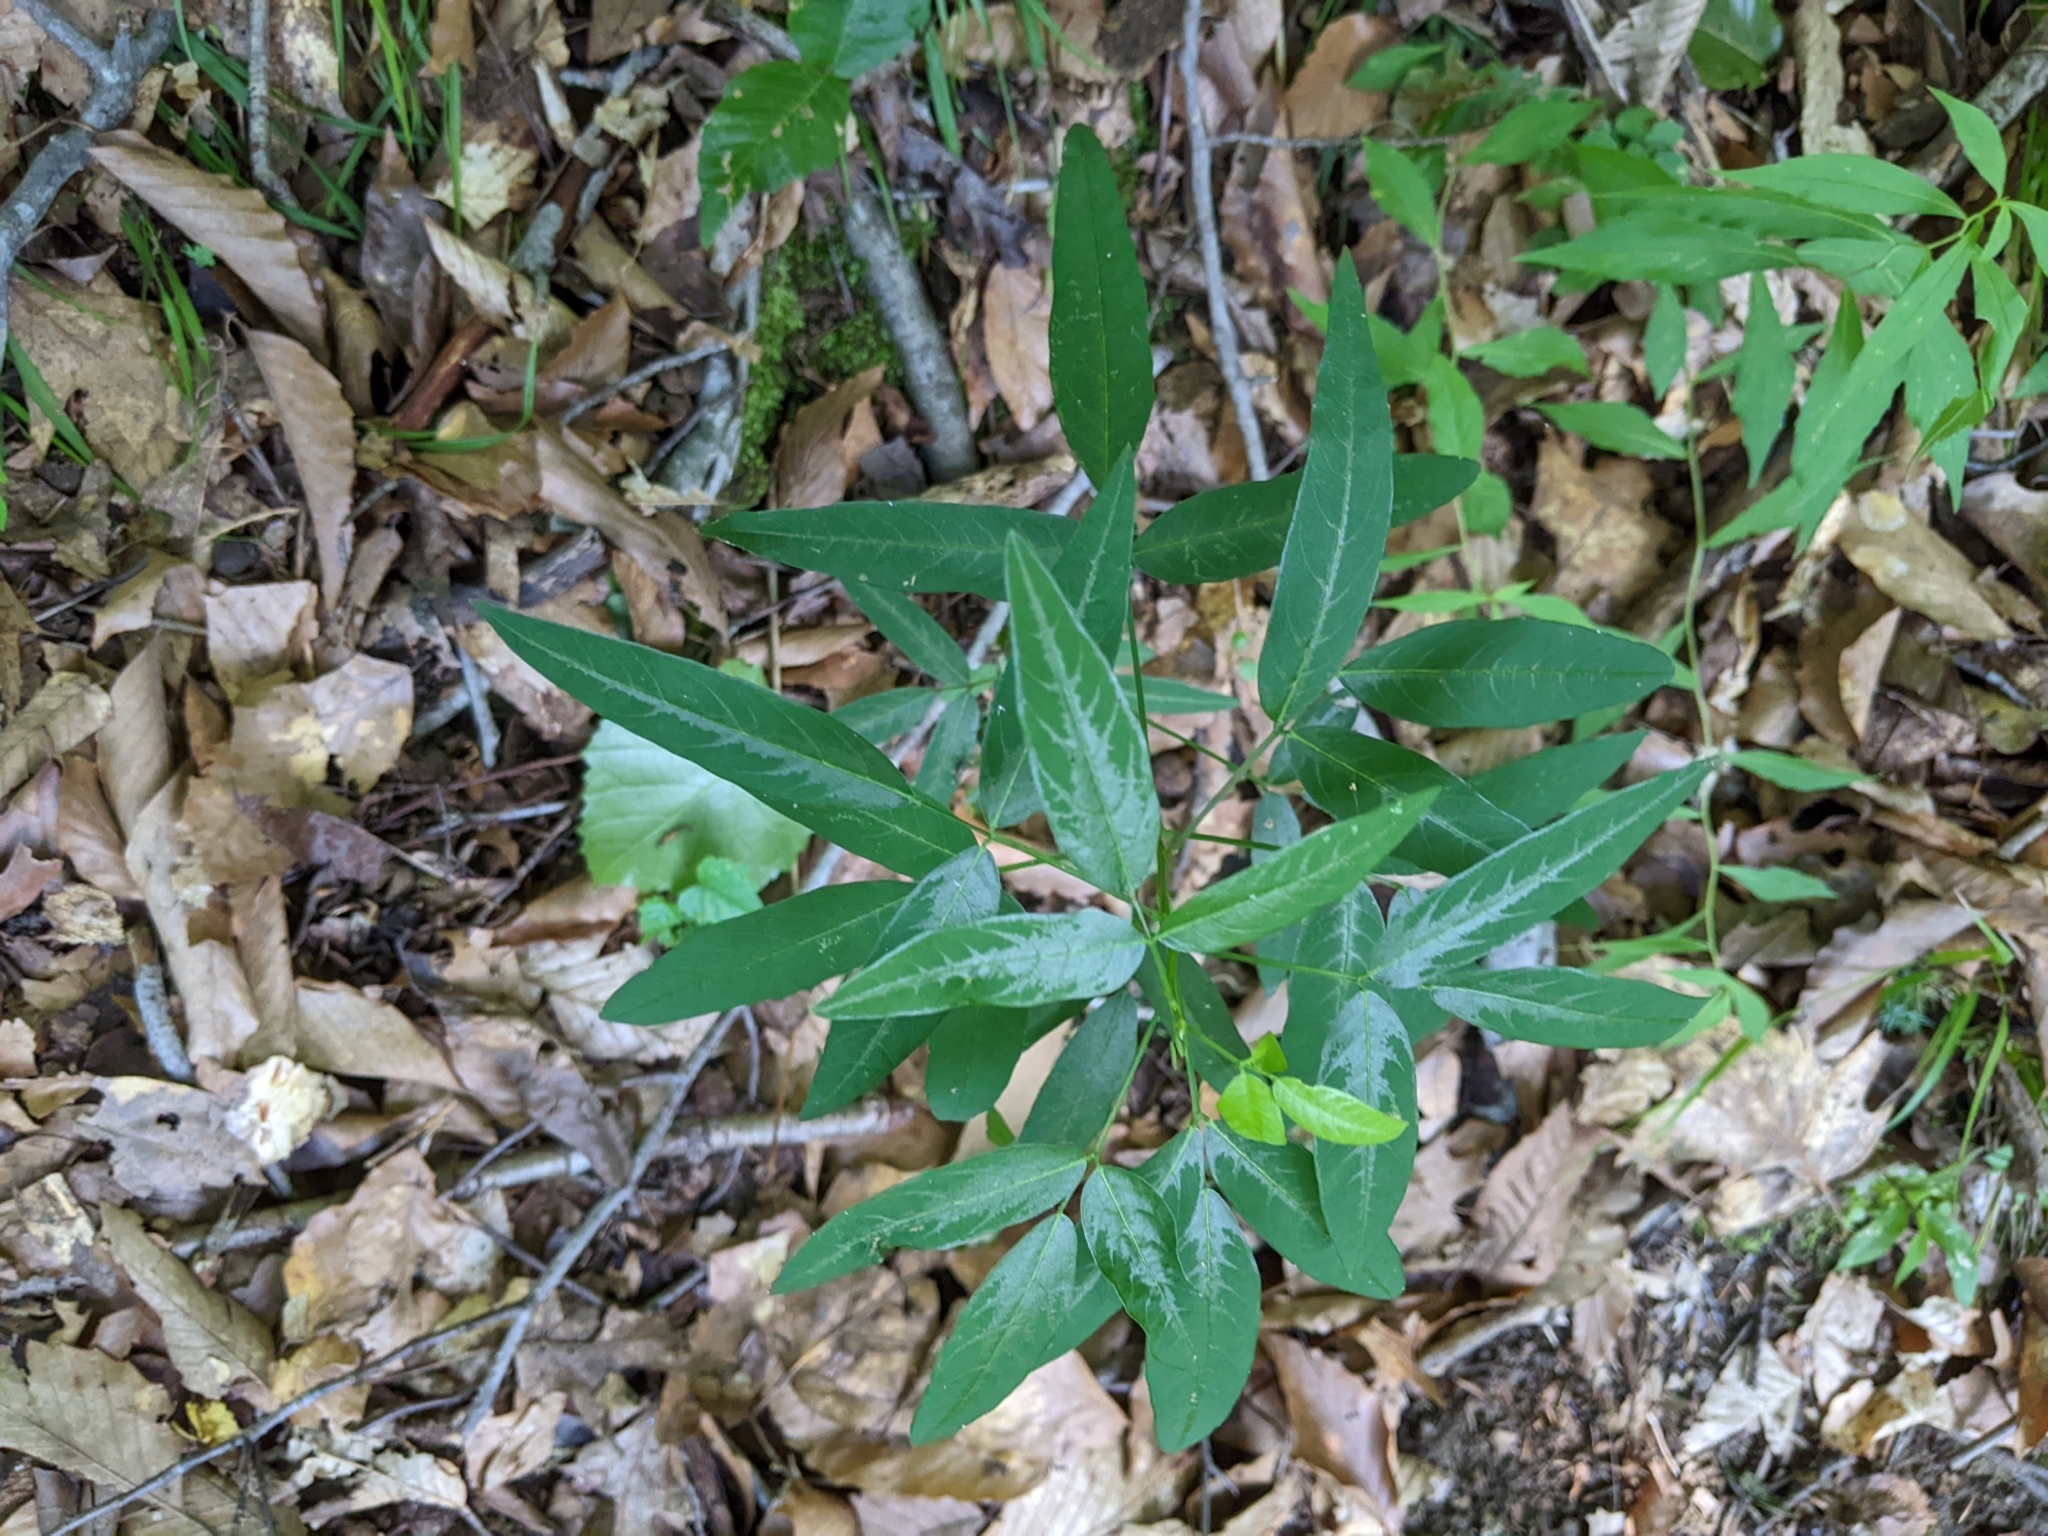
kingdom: Plantae
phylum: Tracheophyta
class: Magnoliopsida
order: Fabales
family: Fabaceae
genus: Desmodium
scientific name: Desmodium paniculatum
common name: Panicled tick-clover
